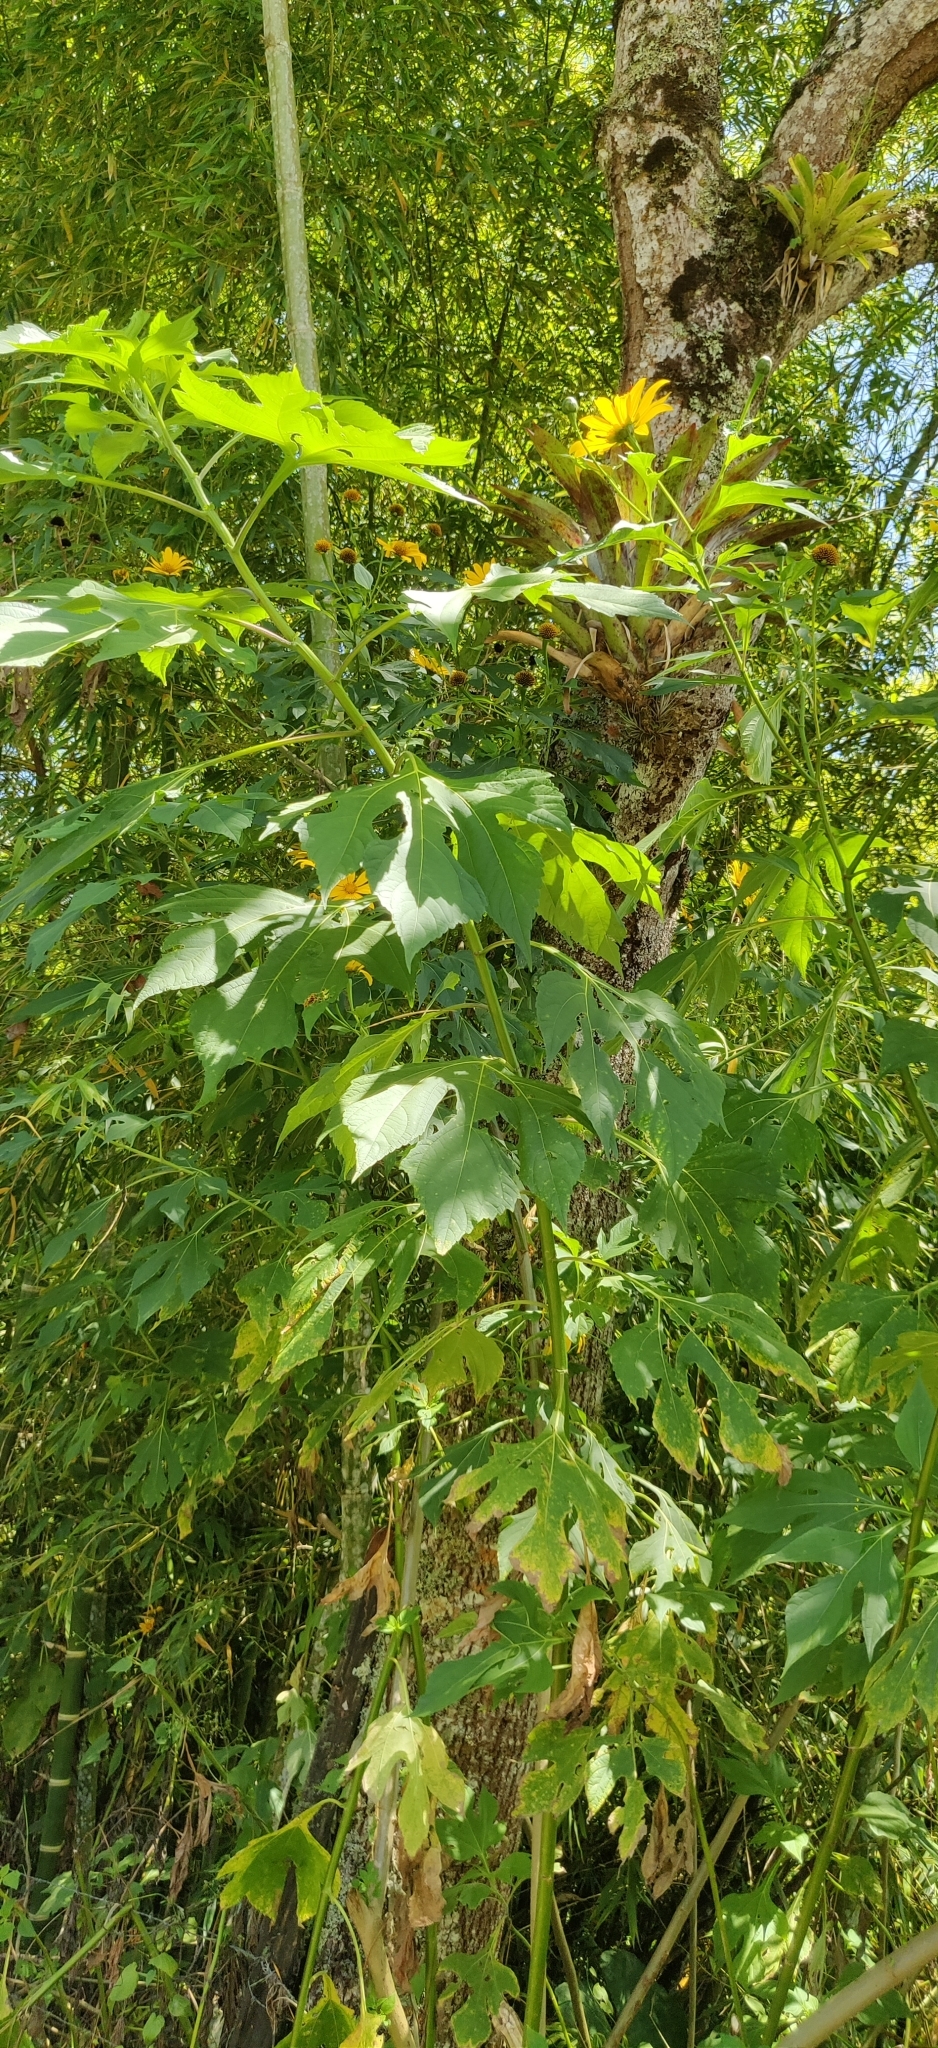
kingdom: Plantae
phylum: Tracheophyta
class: Magnoliopsida
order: Asterales
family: Asteraceae
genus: Tithonia
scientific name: Tithonia diversifolia
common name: Tree marigold
